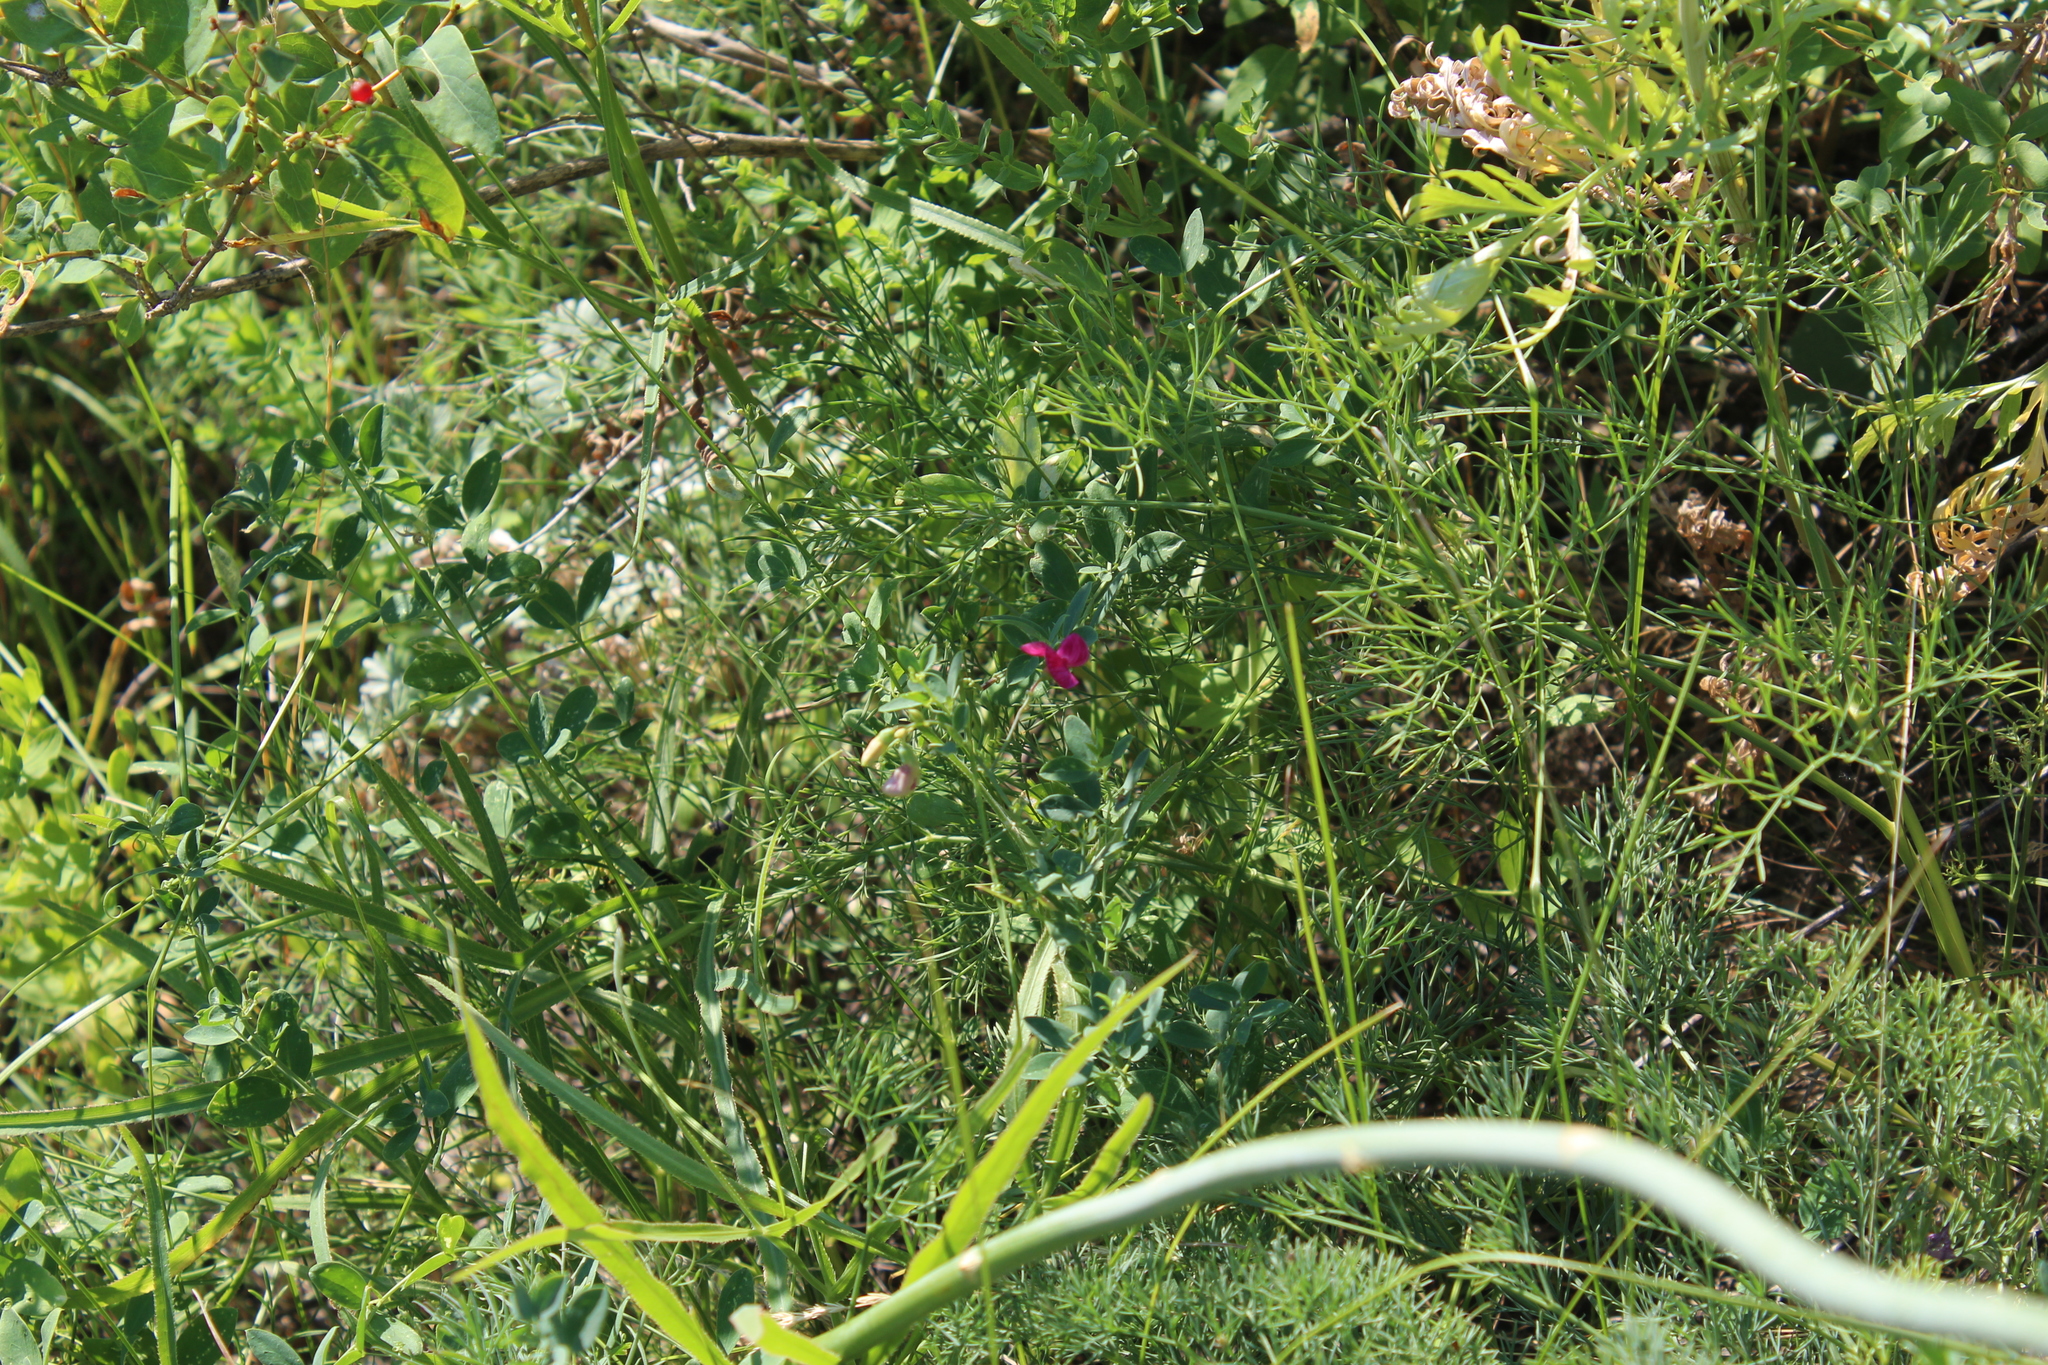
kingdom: Plantae
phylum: Tracheophyta
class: Magnoliopsida
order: Fabales
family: Fabaceae
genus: Lathyrus
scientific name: Lathyrus tuberosus
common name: Tuberous pea
